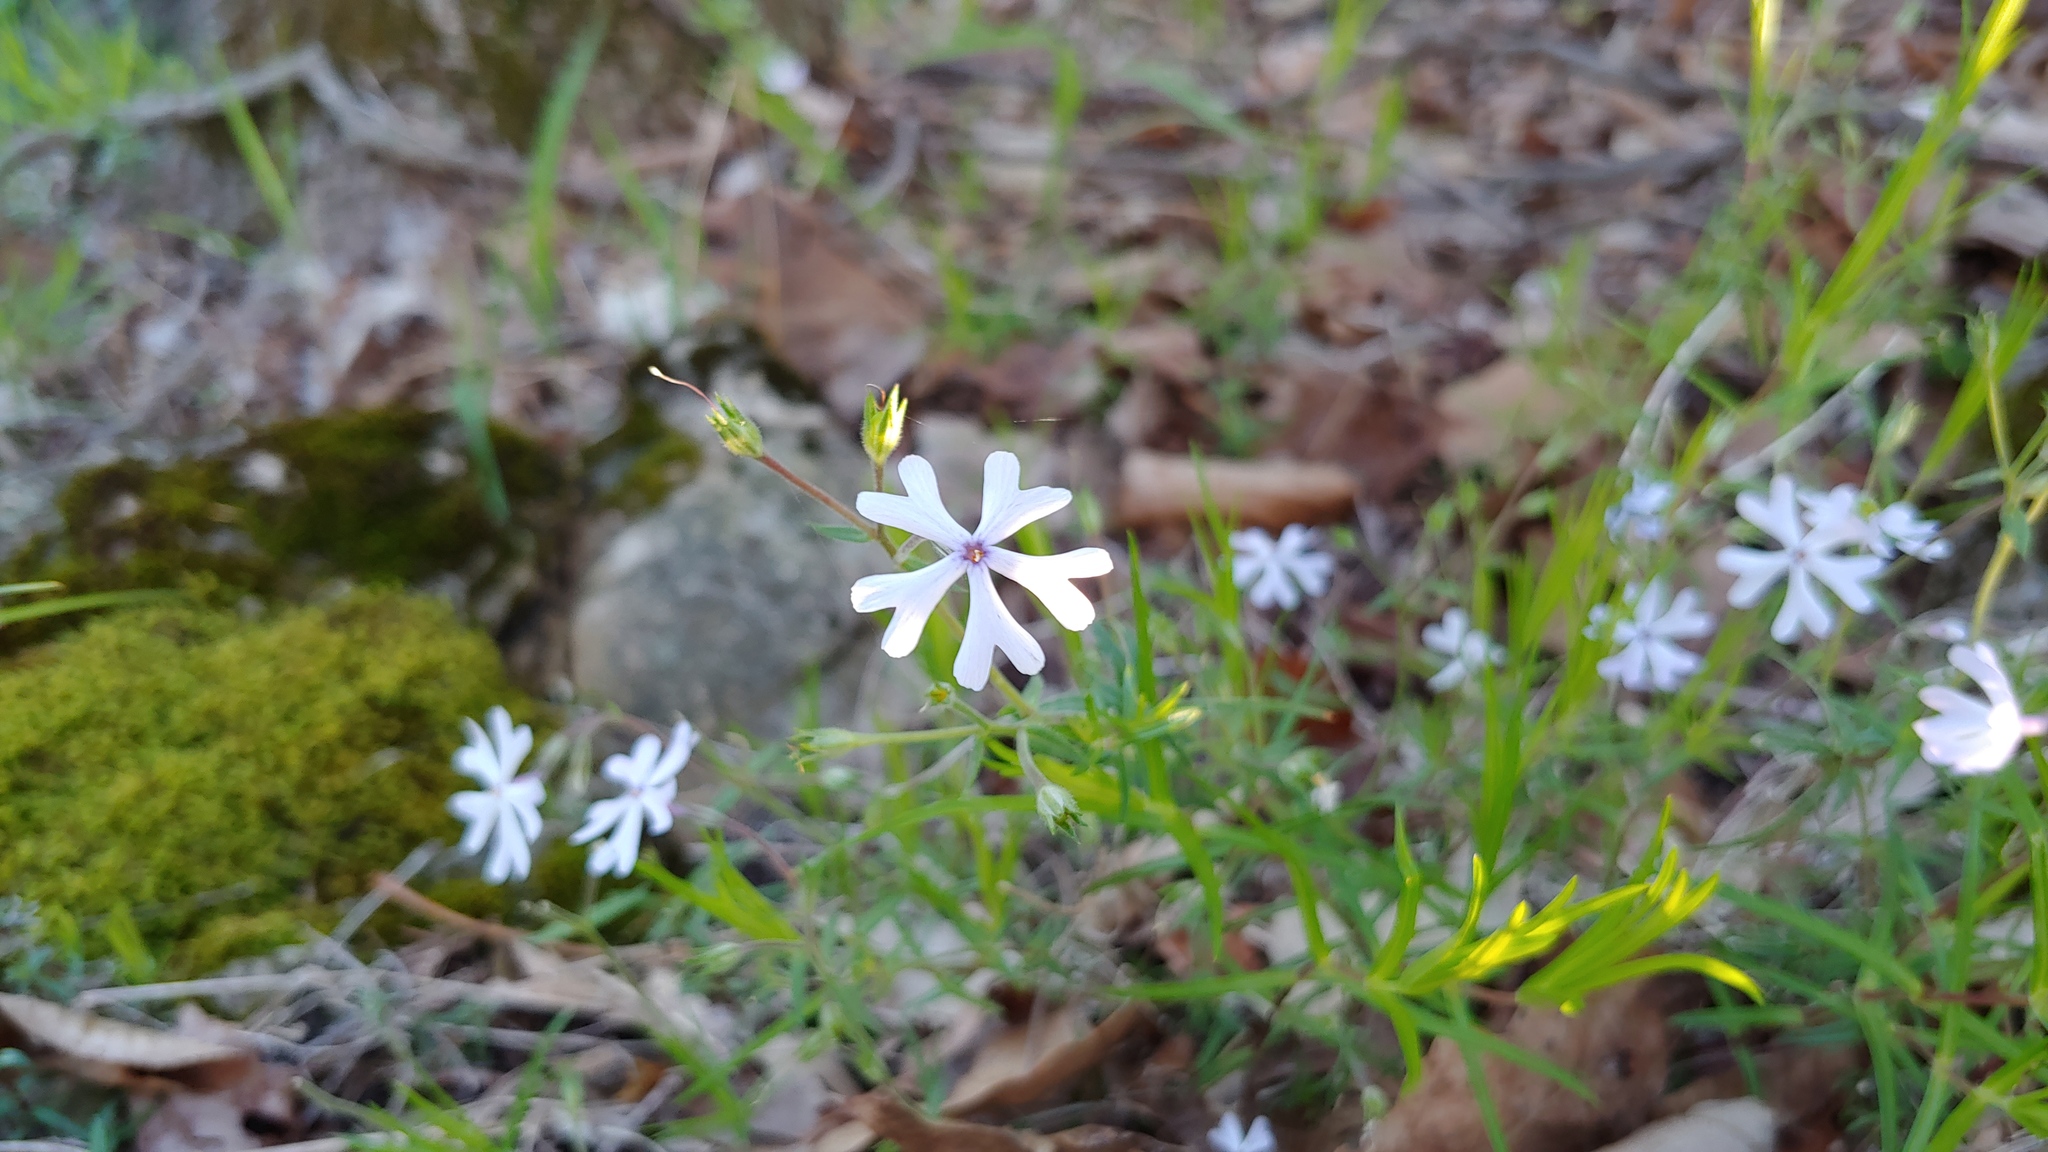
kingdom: Plantae
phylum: Tracheophyta
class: Magnoliopsida
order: Ericales
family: Polemoniaceae
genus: Phlox
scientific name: Phlox bifida
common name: Sand phlox
